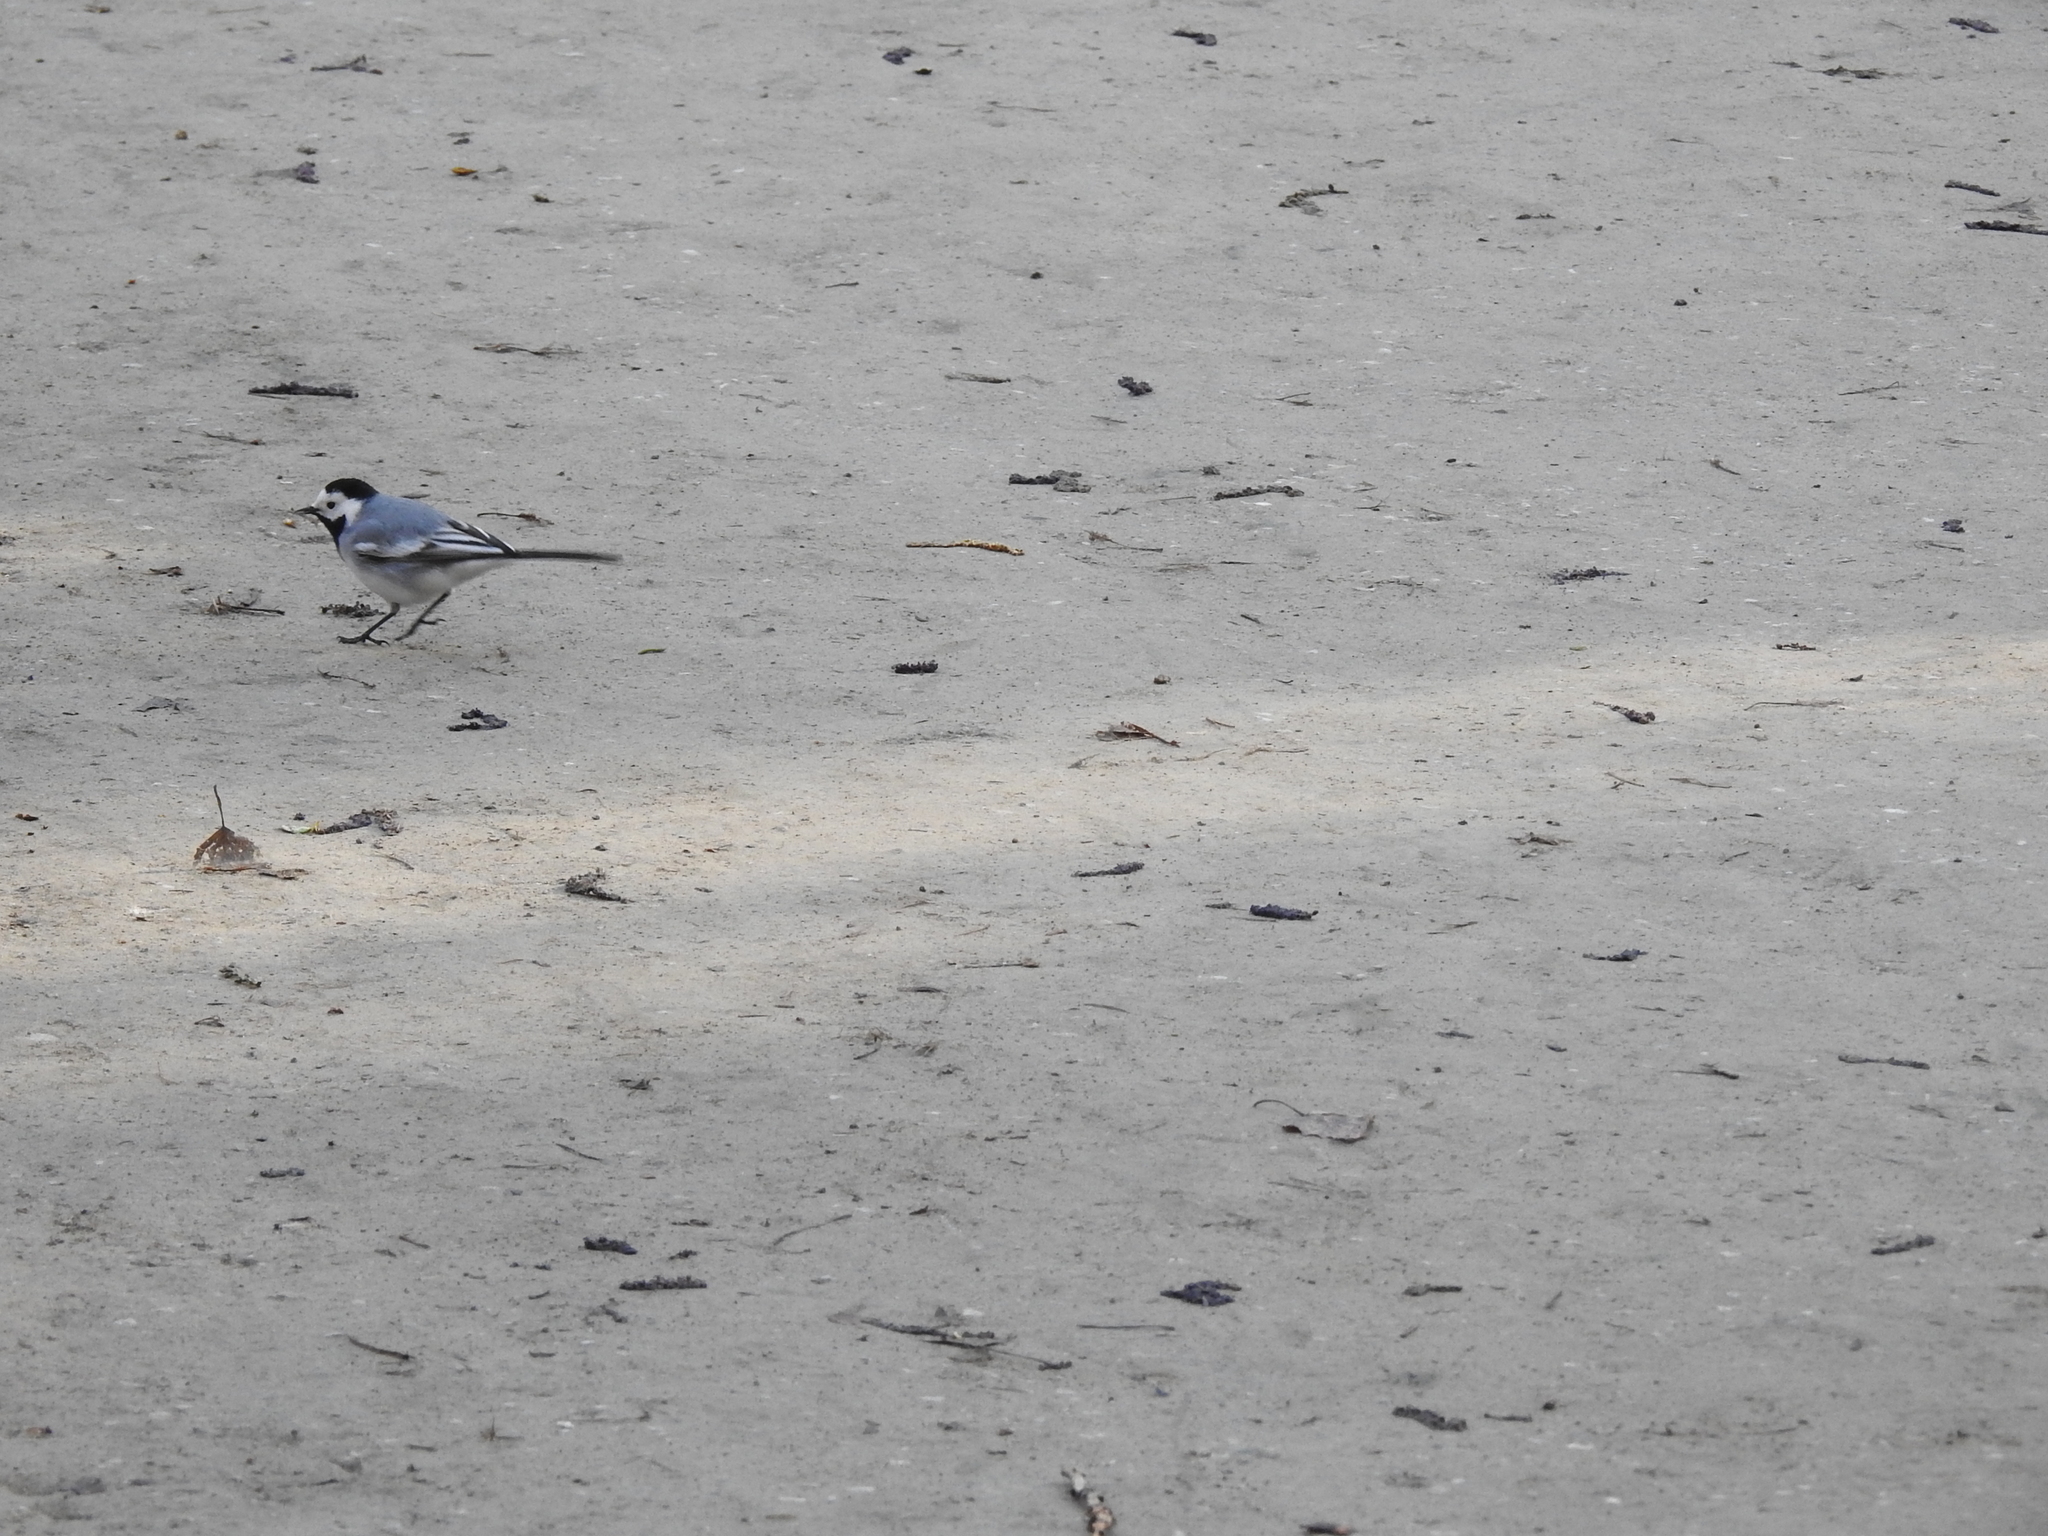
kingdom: Animalia
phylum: Chordata
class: Aves
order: Passeriformes
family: Motacillidae
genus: Motacilla
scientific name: Motacilla alba
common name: White wagtail
